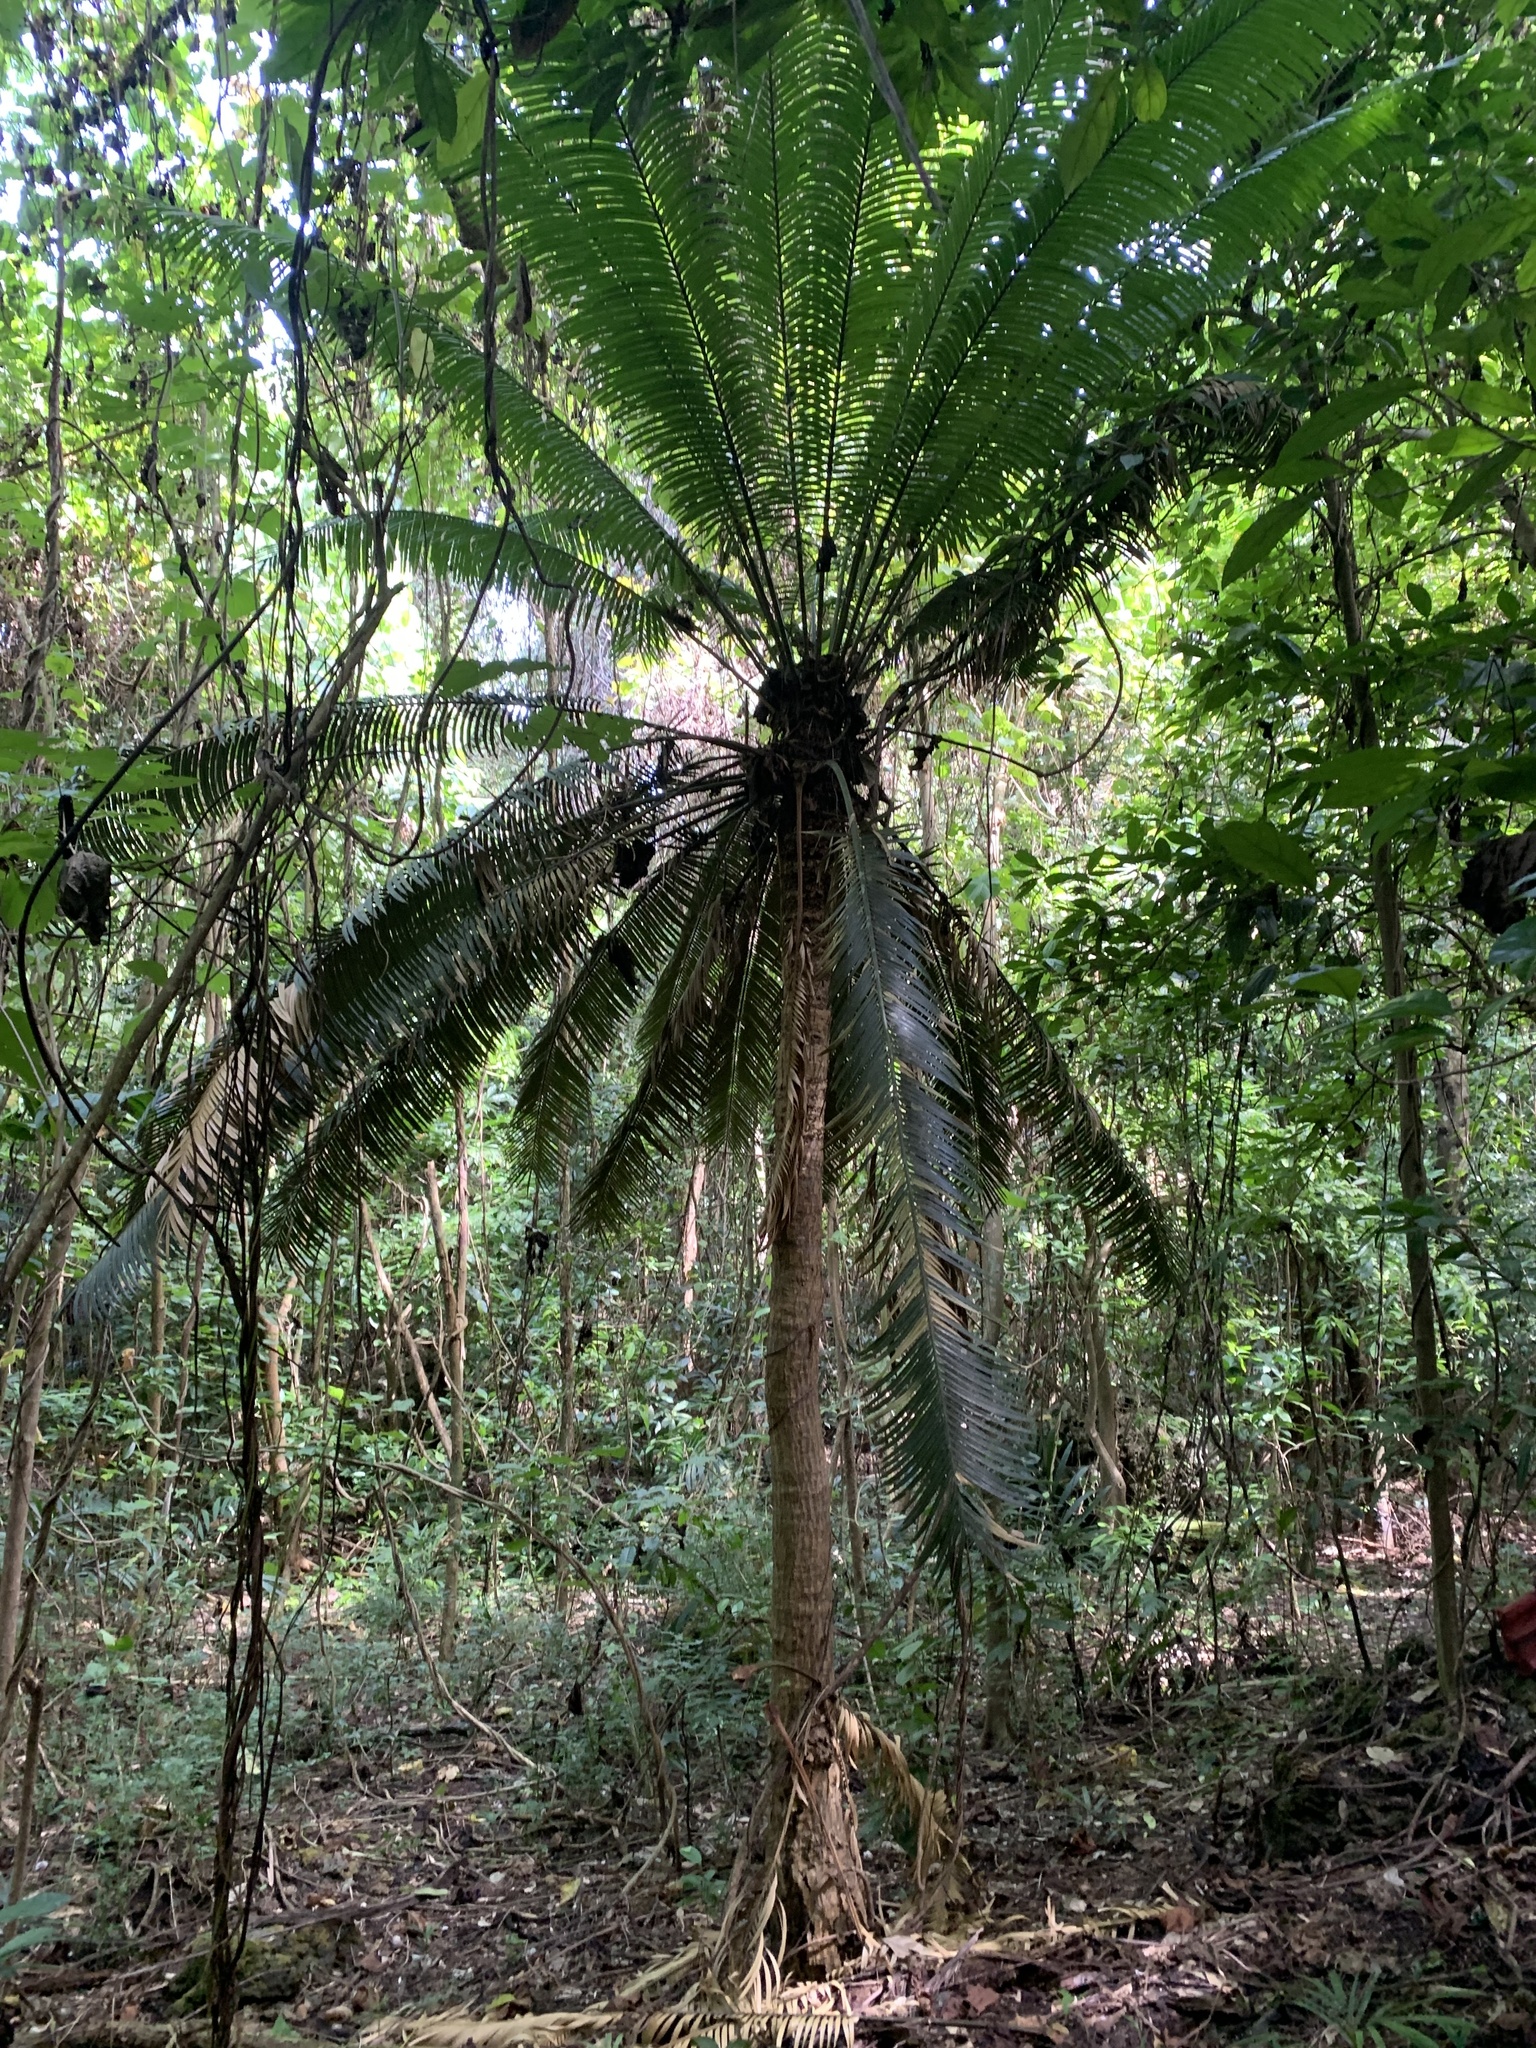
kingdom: Plantae
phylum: Tracheophyta
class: Cycadopsida
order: Cycadales
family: Cycadaceae
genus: Cycas
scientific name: Cycas seemannii
